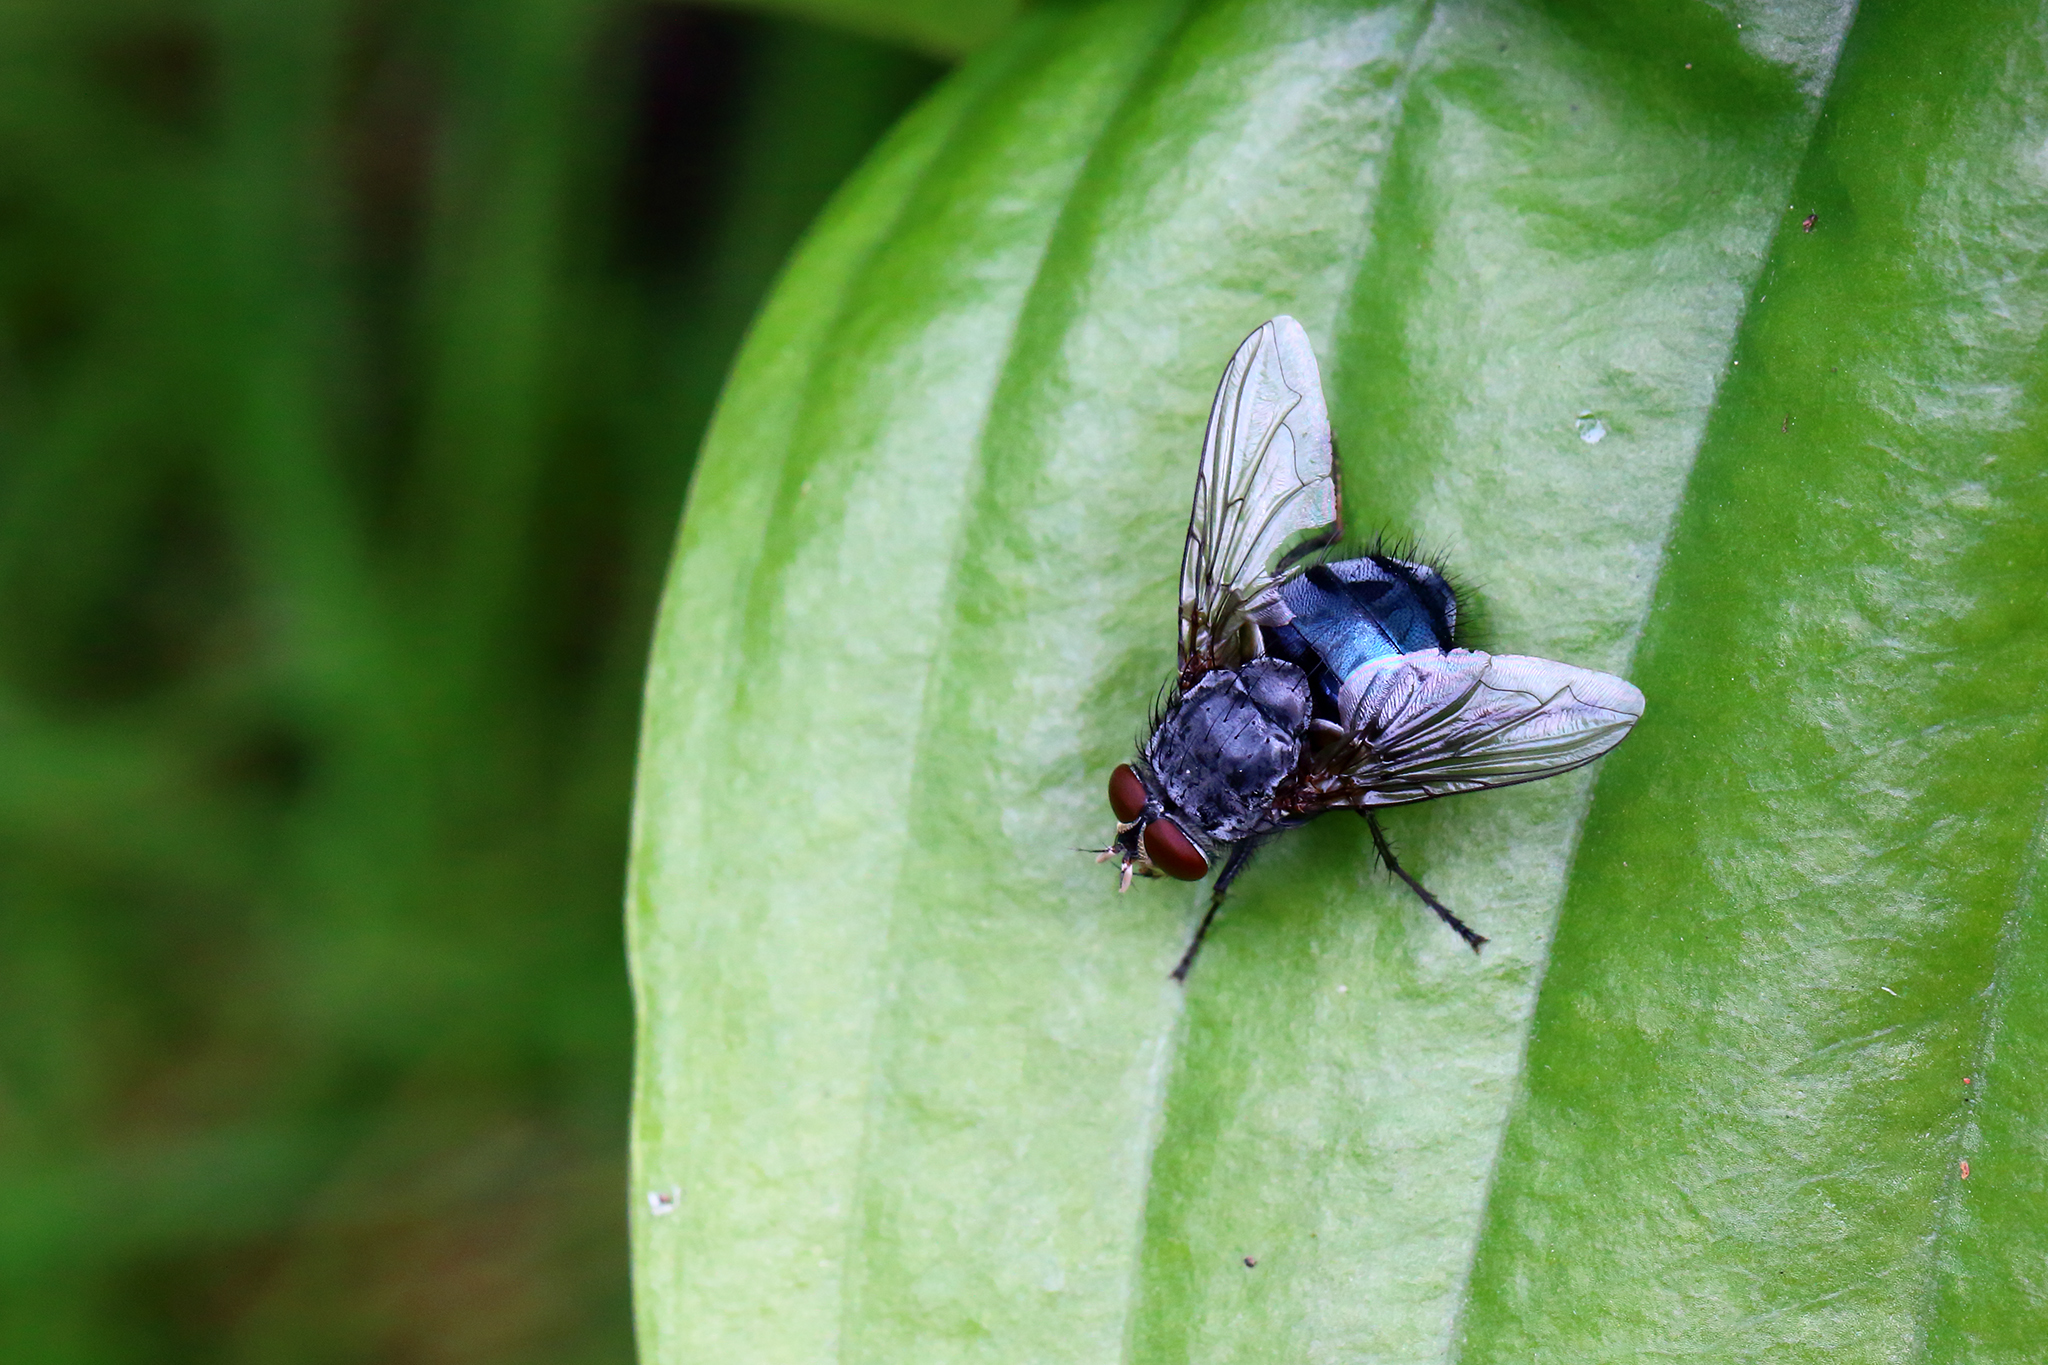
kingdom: Animalia
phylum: Arthropoda
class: Insecta
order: Diptera
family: Calliphoridae
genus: Calliphora
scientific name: Calliphora vicina
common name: Common blow flie
